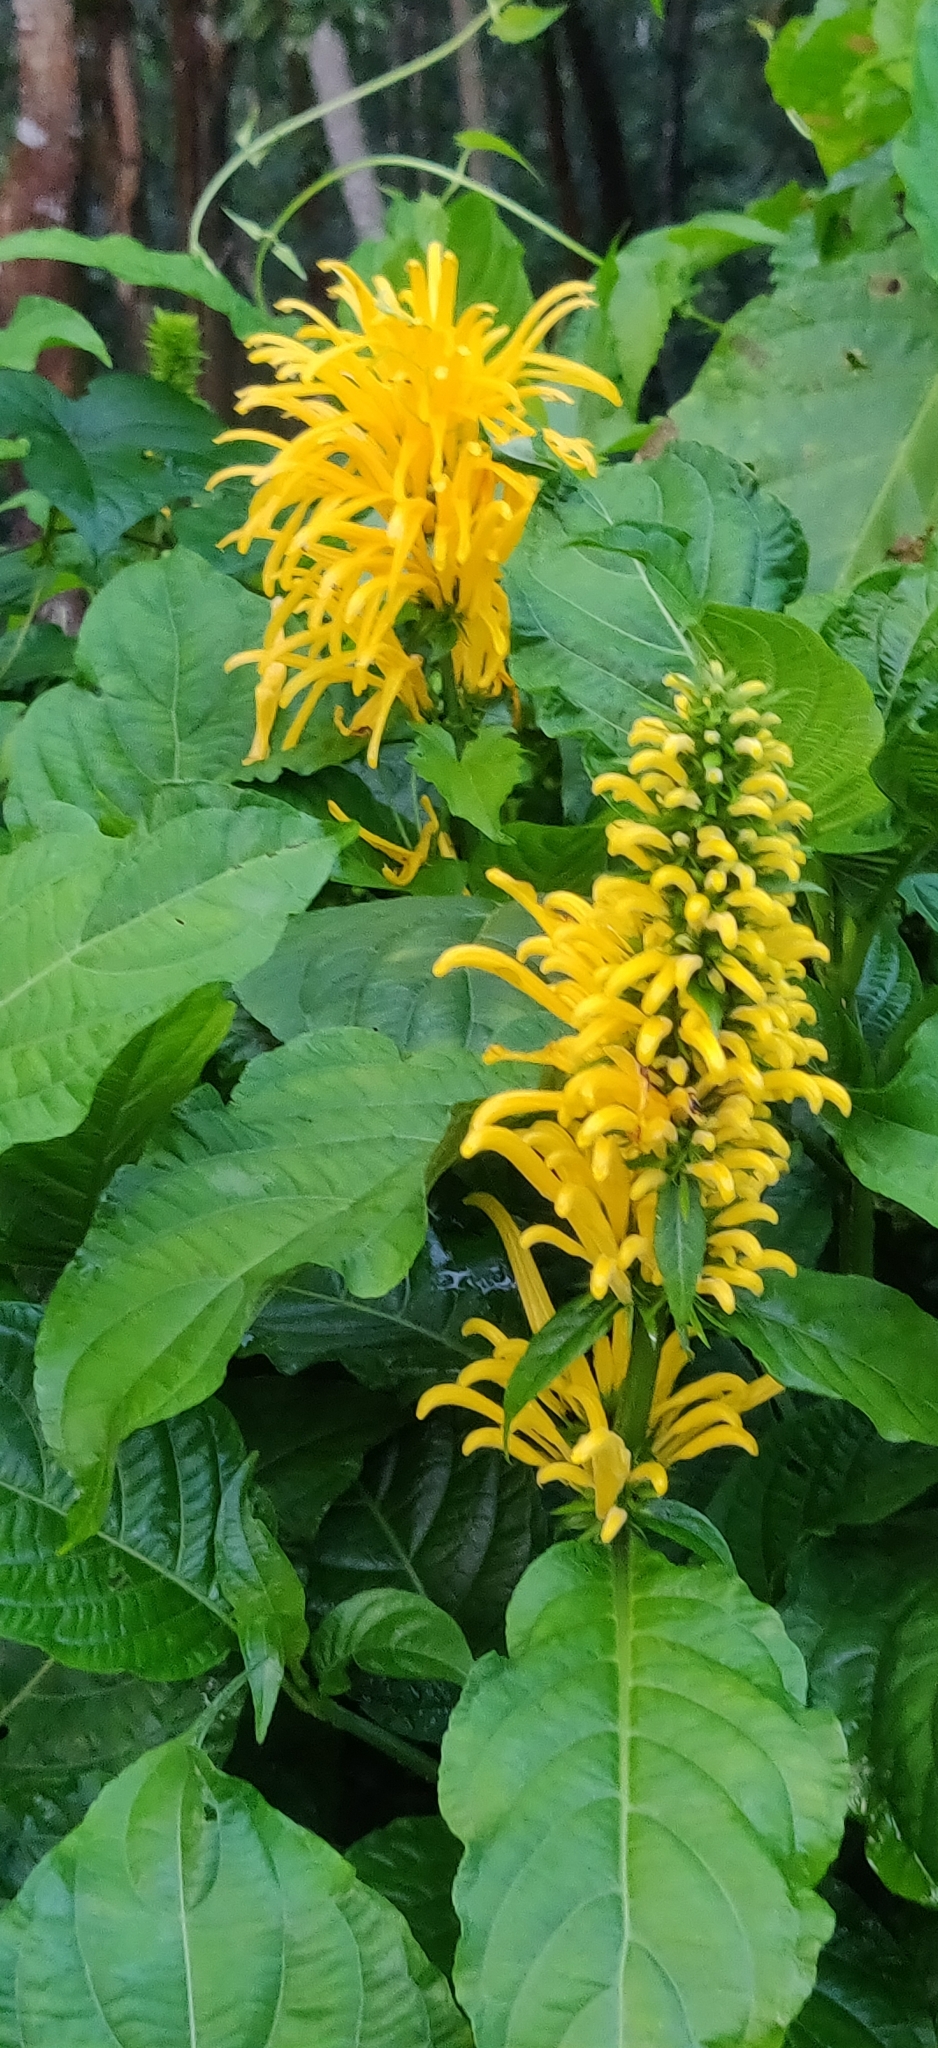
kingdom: Plantae
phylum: Tracheophyta
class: Magnoliopsida
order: Lamiales
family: Acanthaceae
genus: Justicia
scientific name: Justicia aurea
